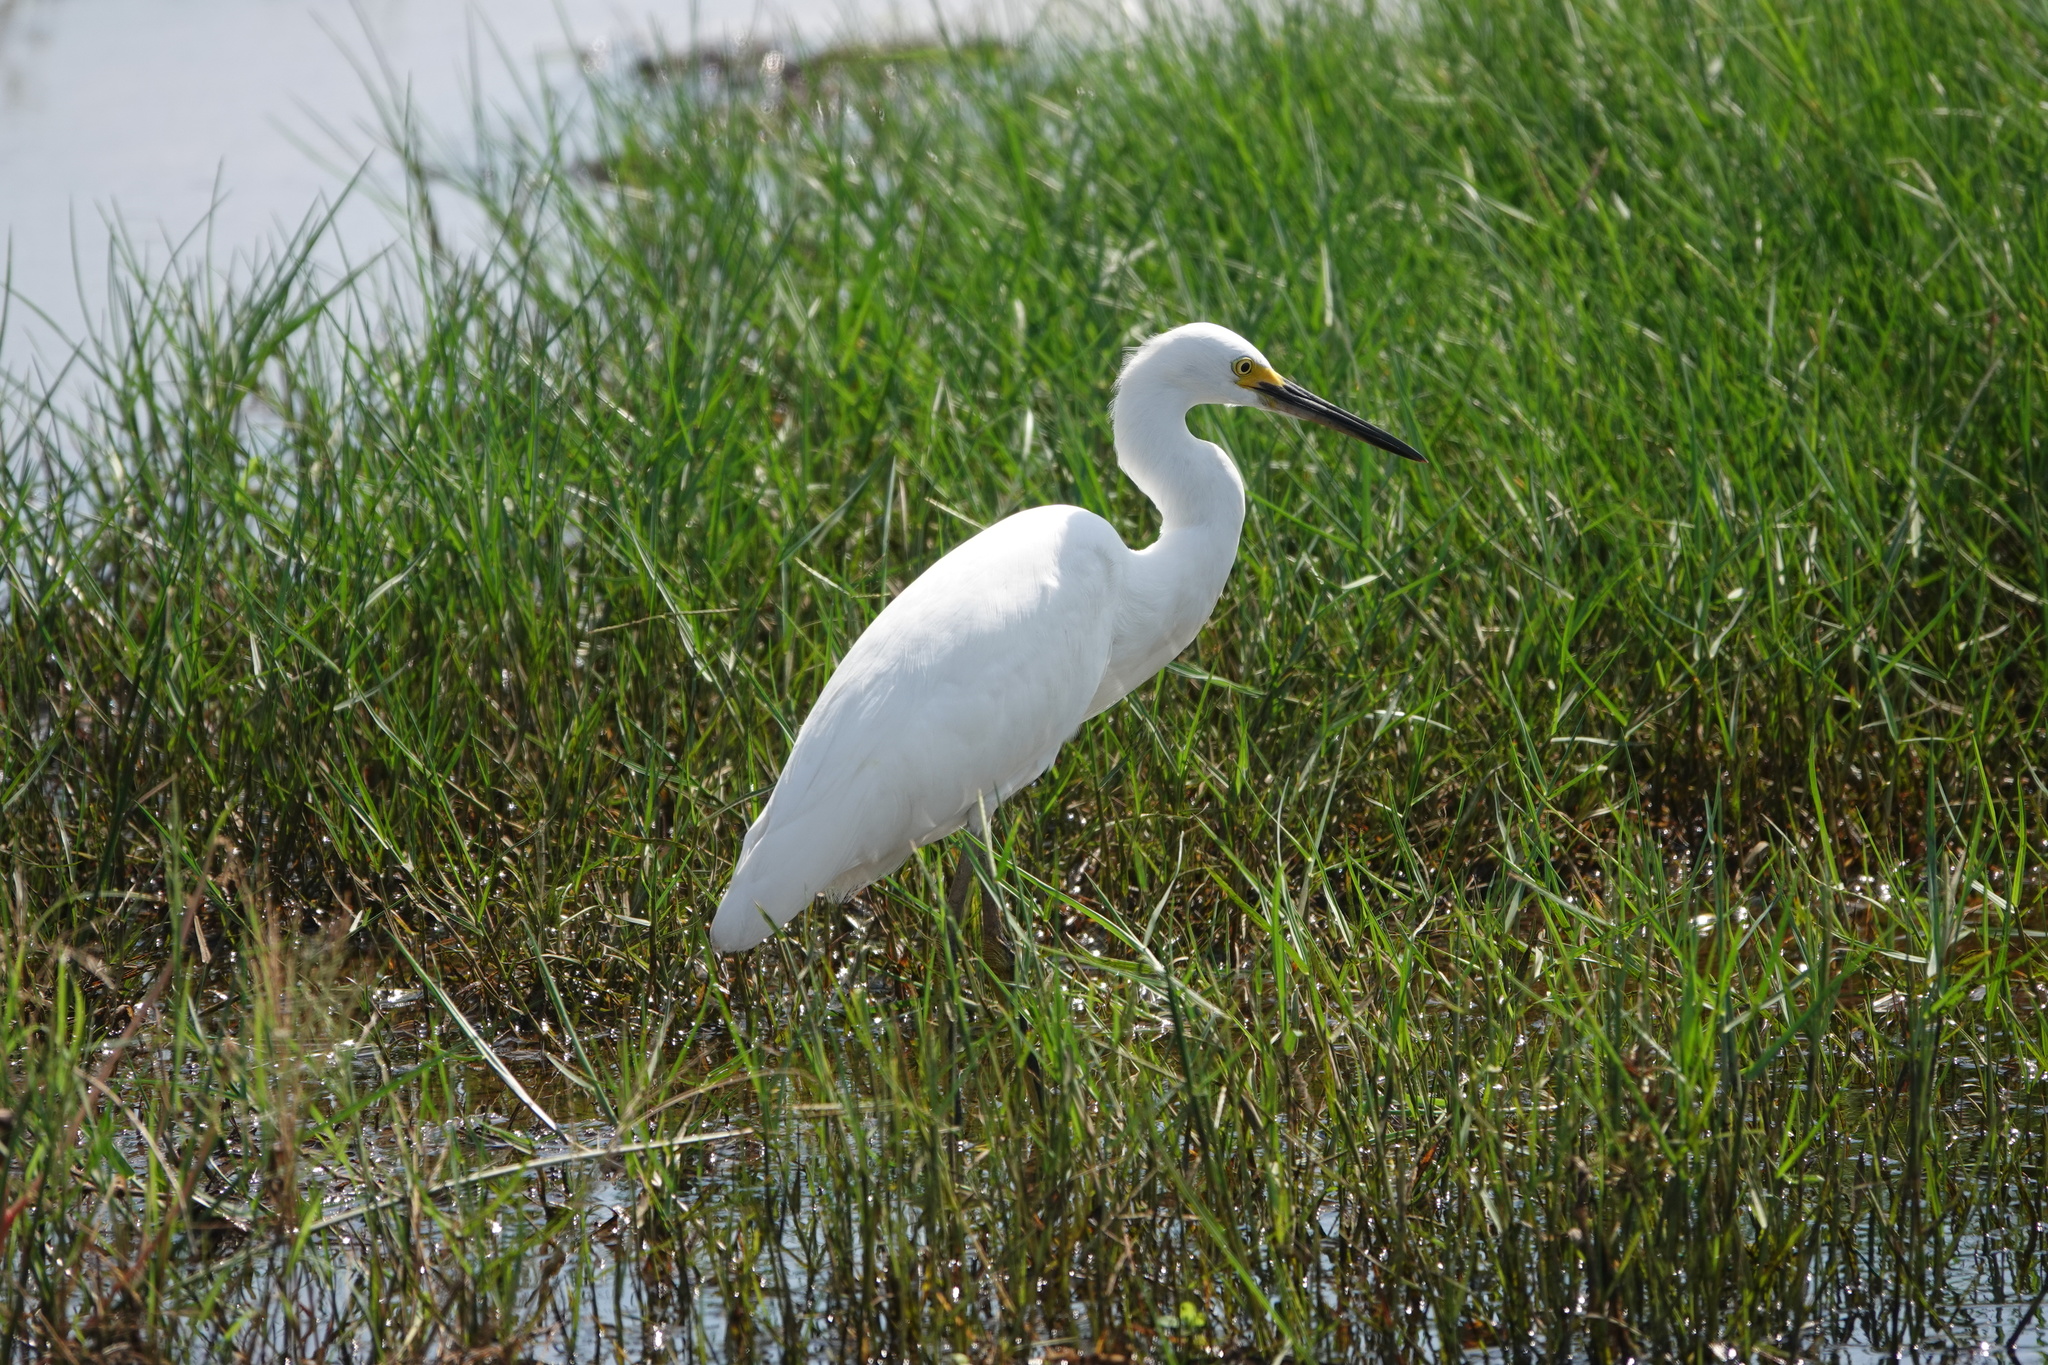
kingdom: Animalia
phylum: Chordata
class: Aves
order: Pelecaniformes
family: Ardeidae
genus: Egretta
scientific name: Egretta thula
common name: Snowy egret
